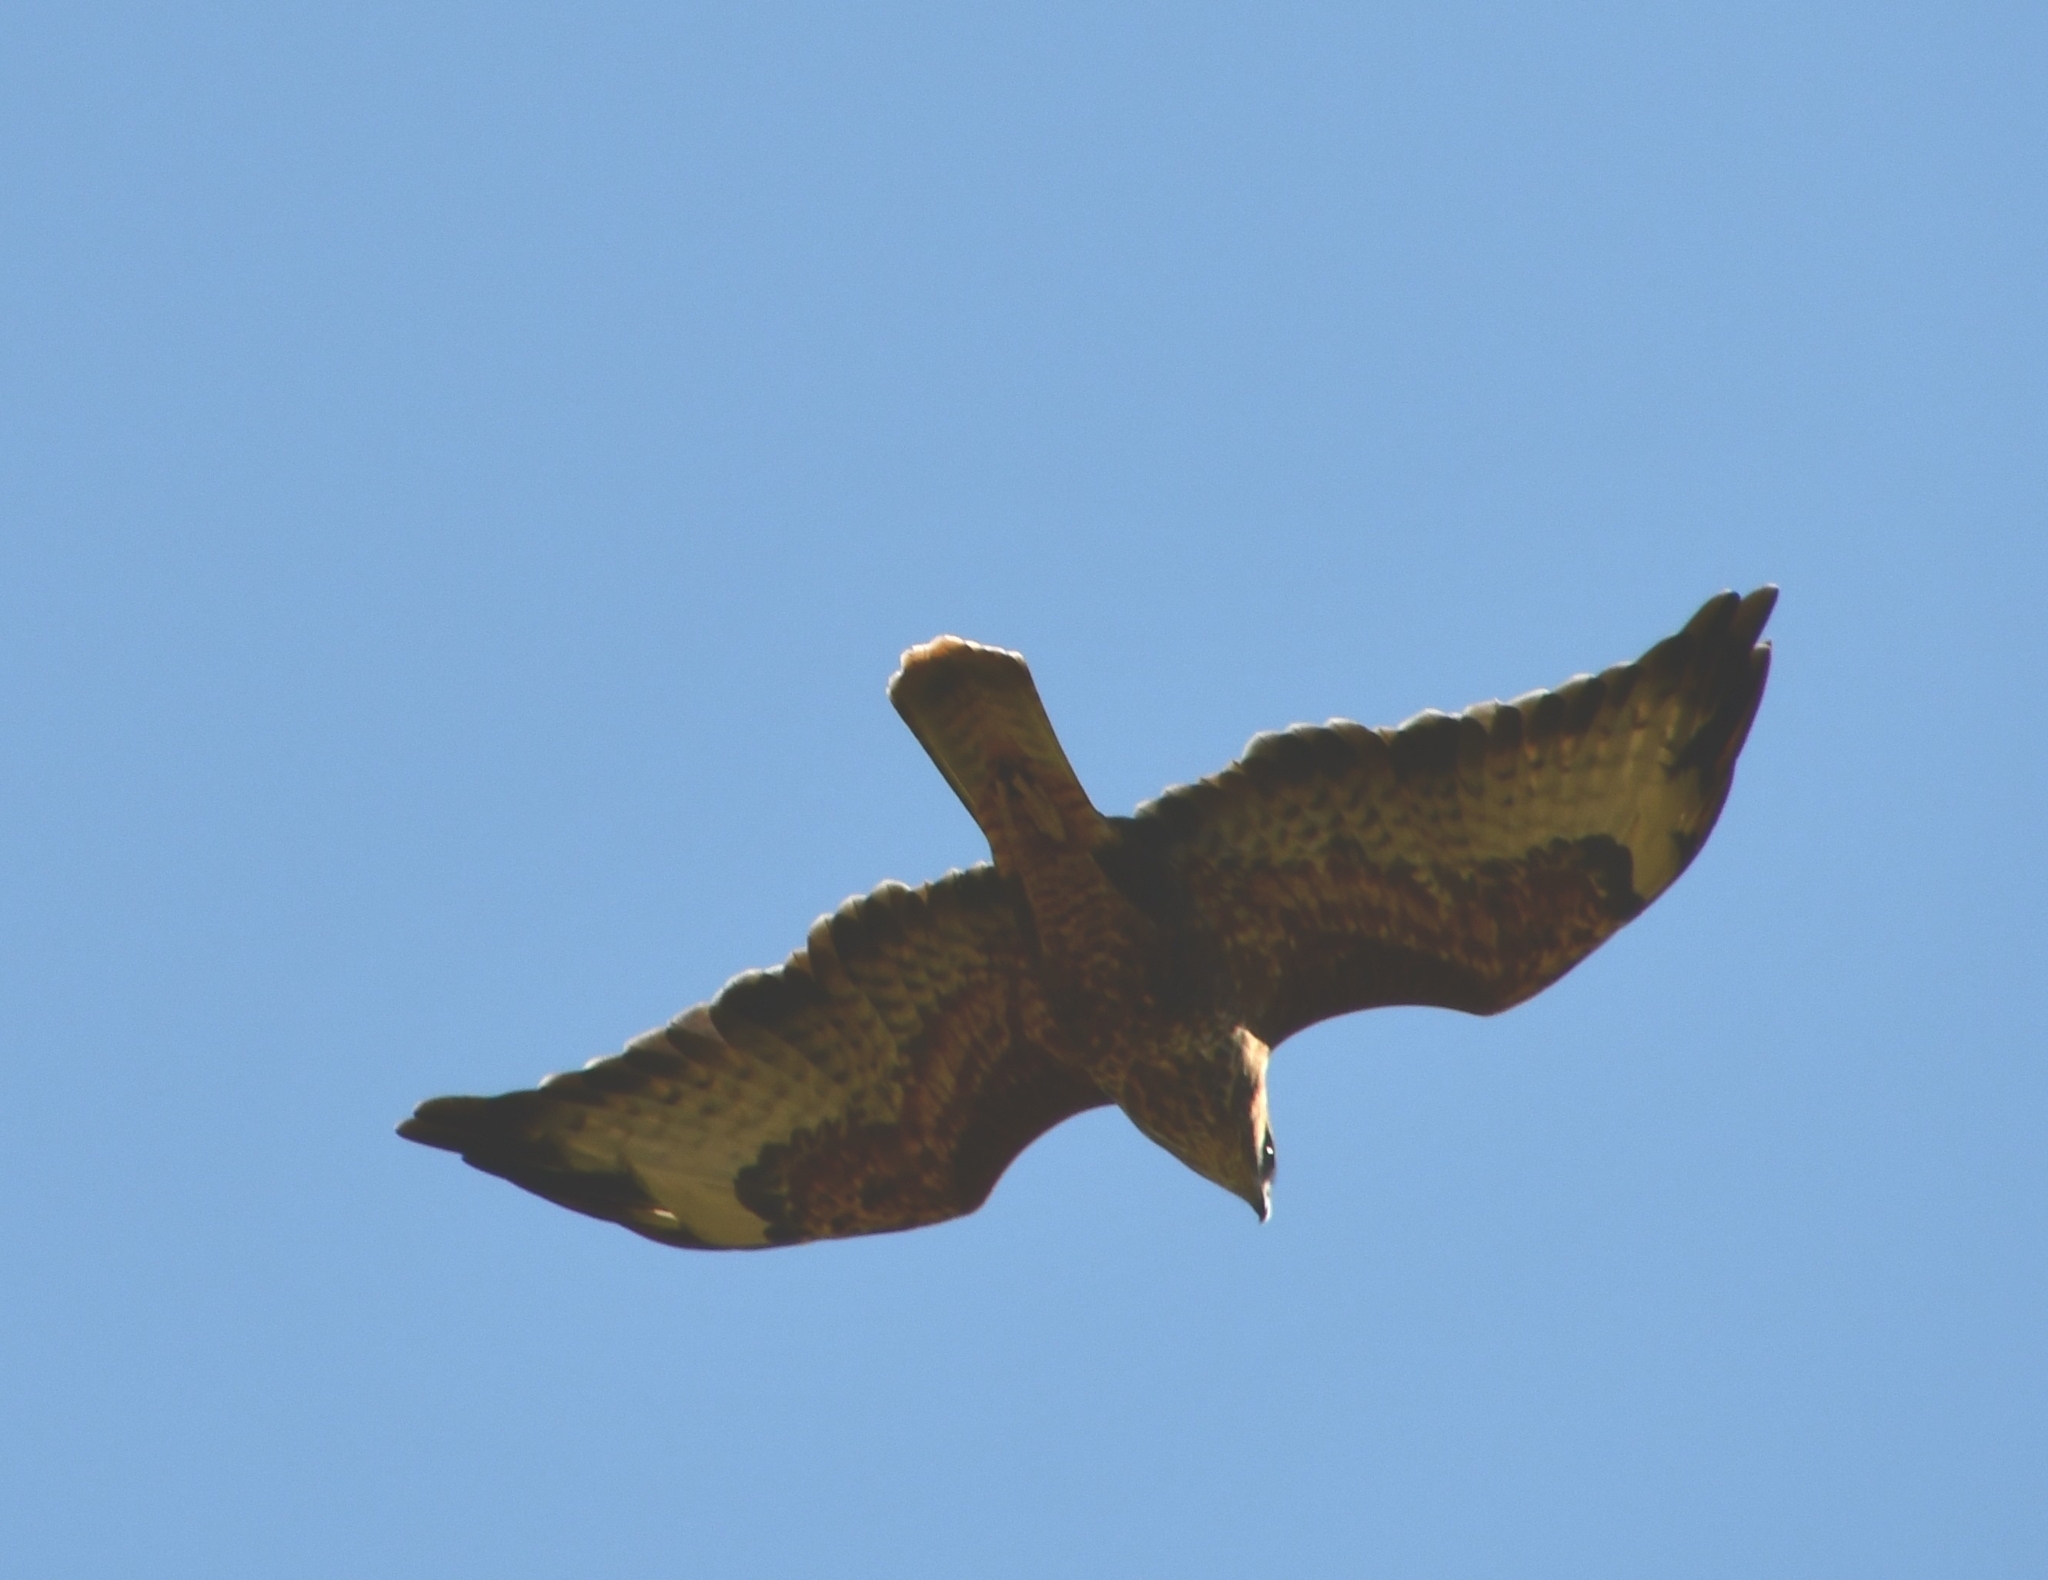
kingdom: Animalia
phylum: Chordata
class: Aves
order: Accipitriformes
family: Accipitridae
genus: Buteo
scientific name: Buteo buteo
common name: Common buzzard
